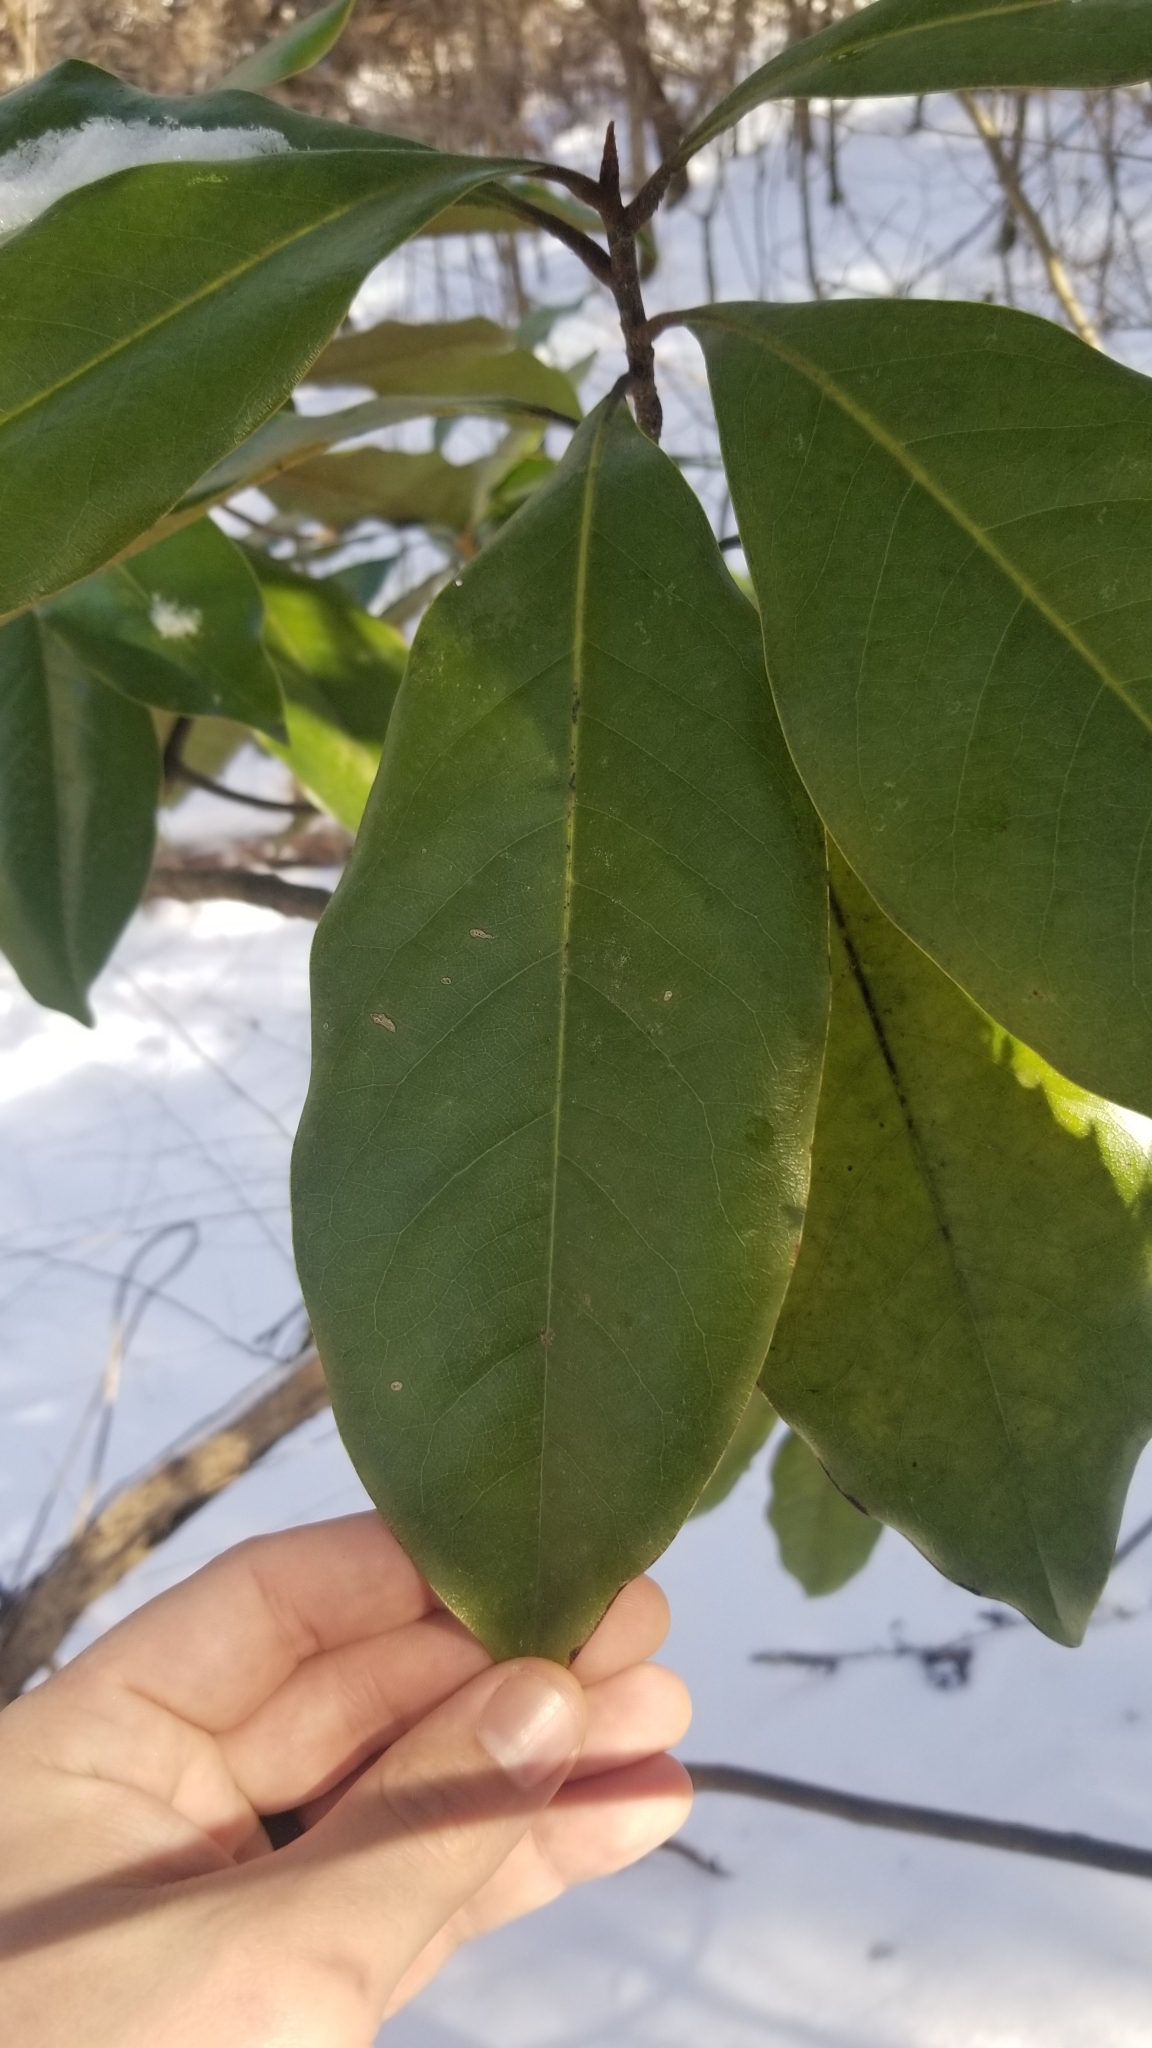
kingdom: Plantae
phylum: Tracheophyta
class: Magnoliopsida
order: Magnoliales
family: Magnoliaceae
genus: Magnolia
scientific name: Magnolia grandiflora
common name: Southern magnolia
